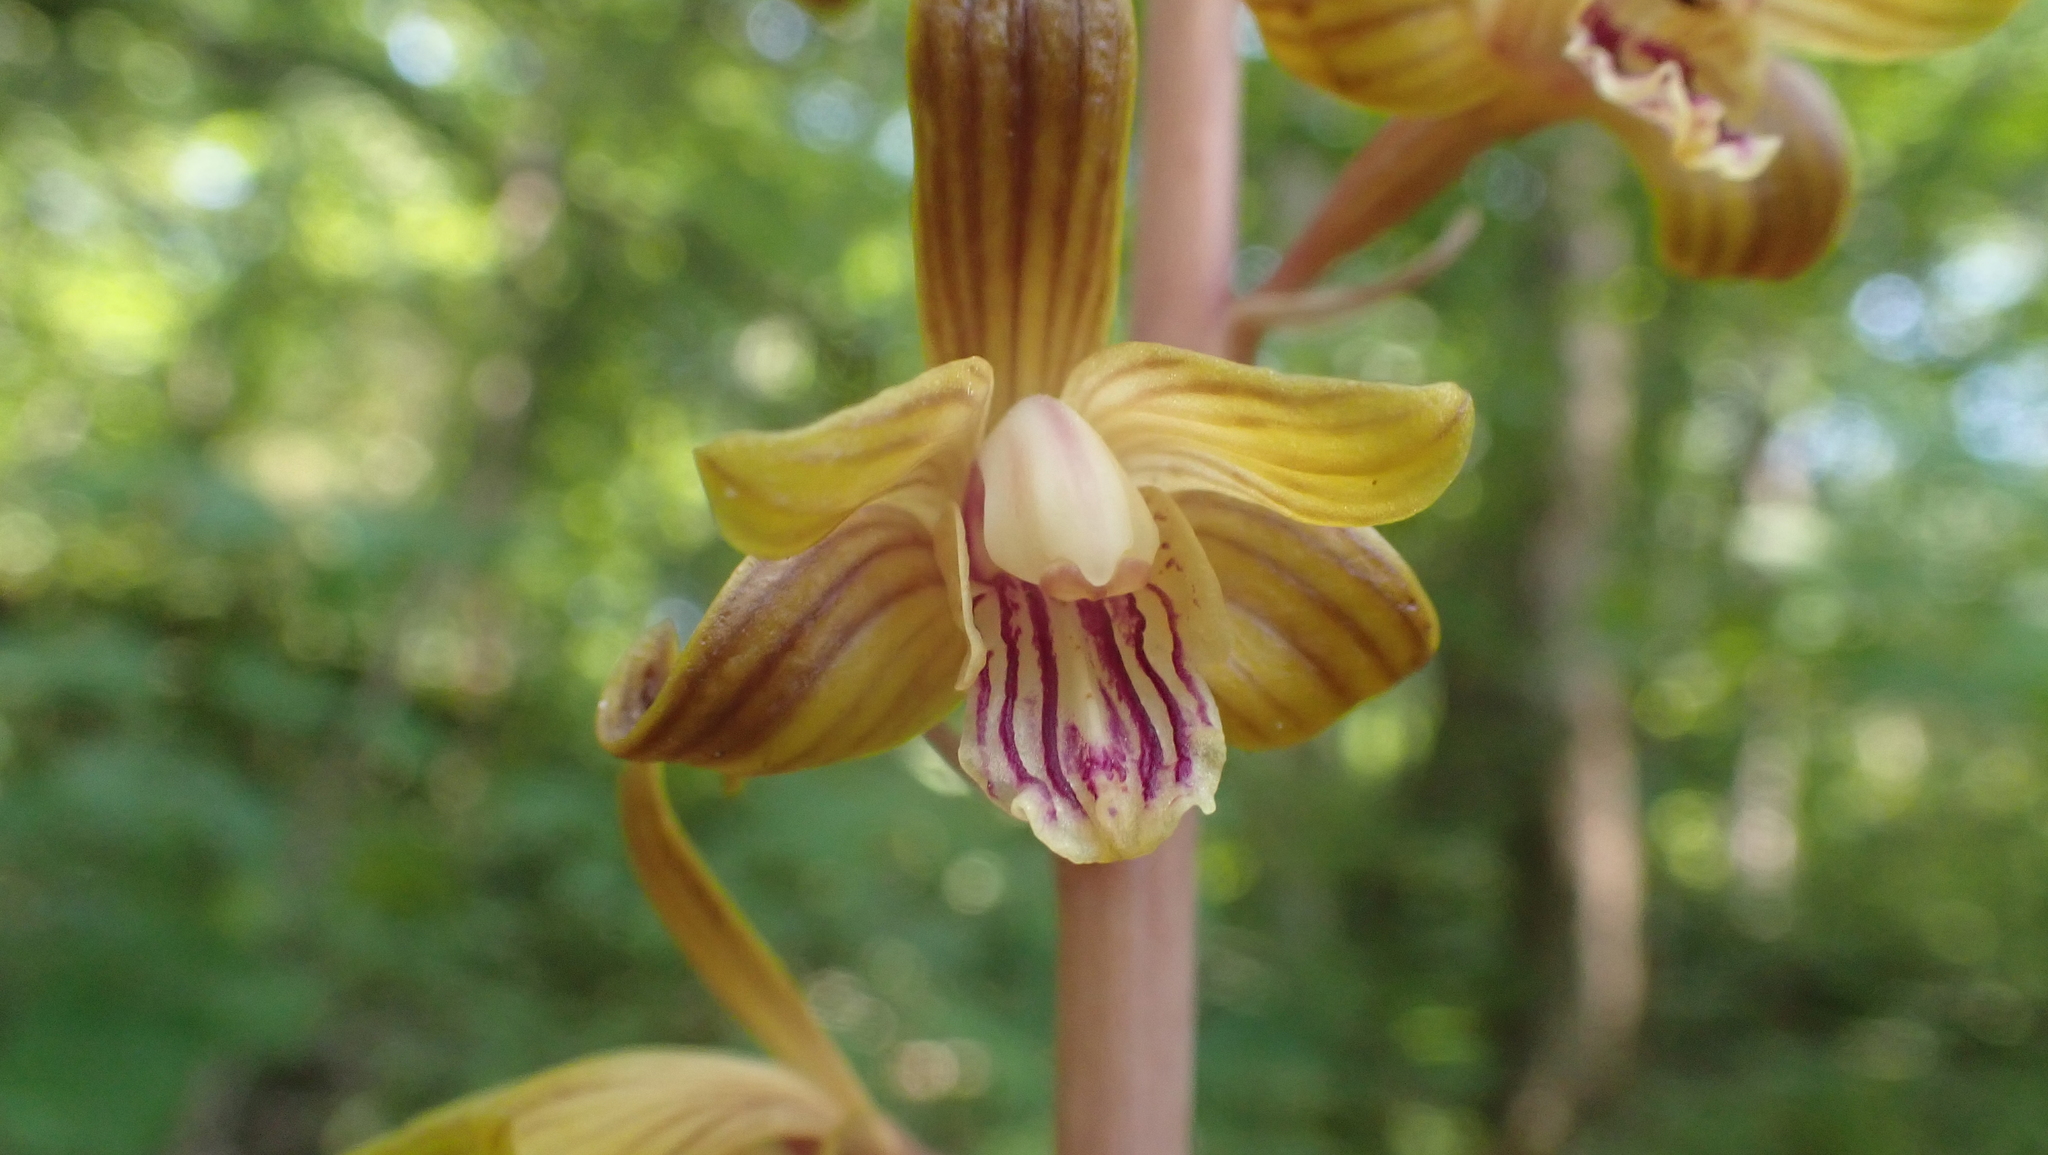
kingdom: Plantae
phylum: Tracheophyta
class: Liliopsida
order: Asparagales
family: Orchidaceae
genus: Bletia
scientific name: Bletia spicata
